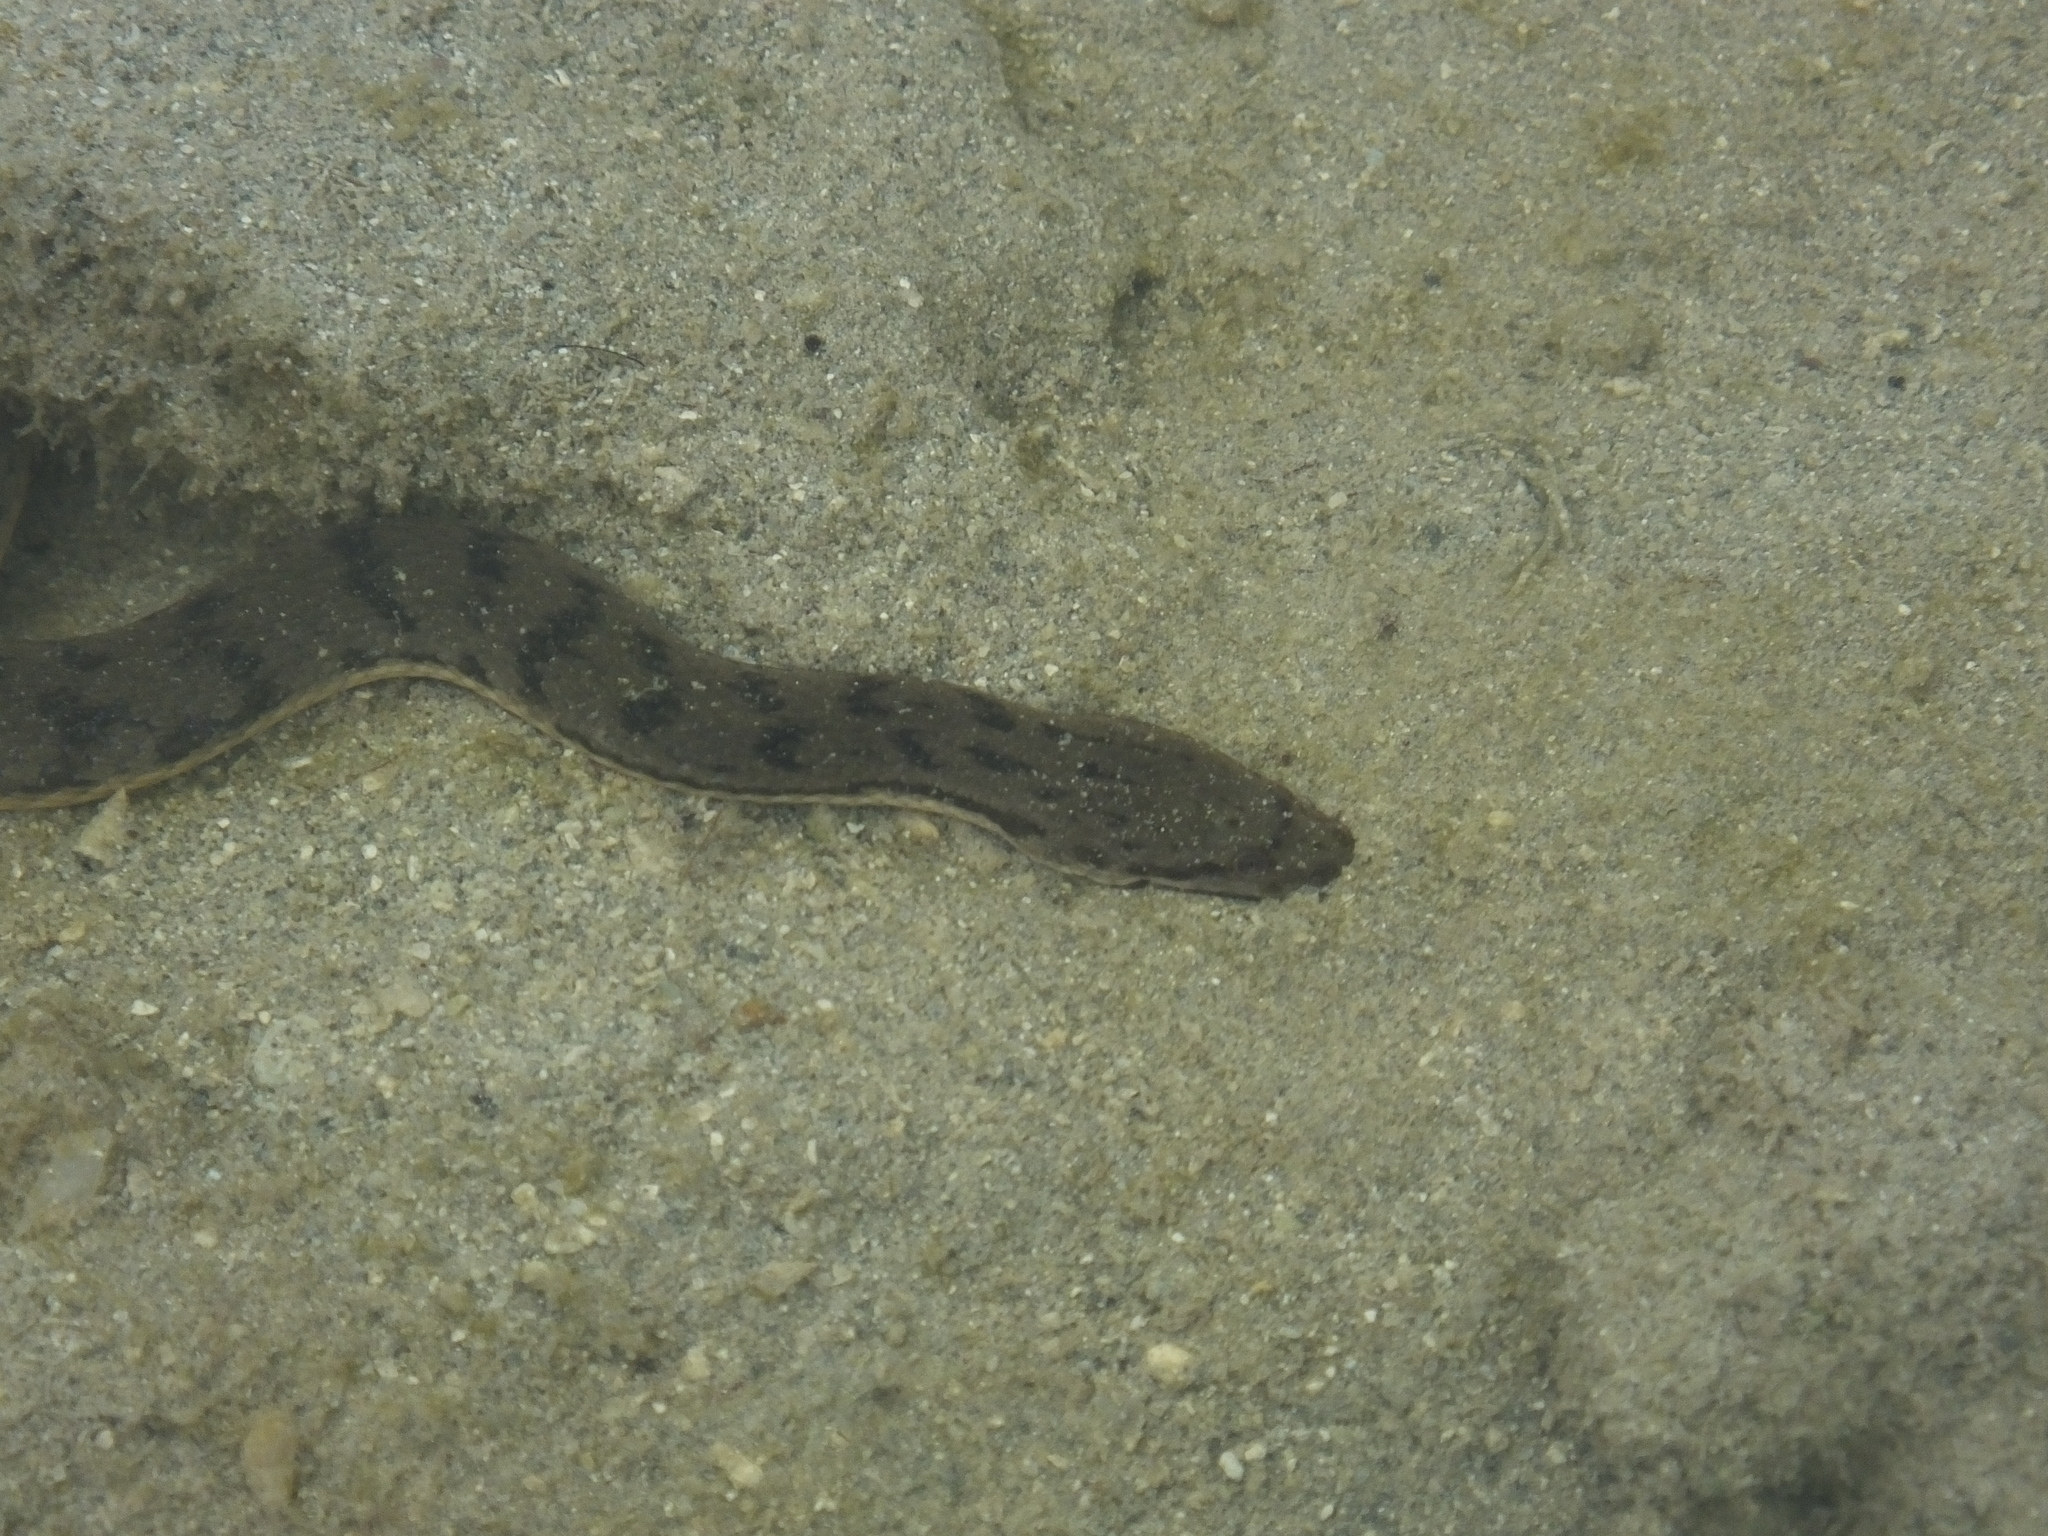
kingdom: Animalia
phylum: Chordata
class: Squamata
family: Homalopsidae
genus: Cerberus
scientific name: Cerberus schneiderii
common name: Southeast asian bockadam
